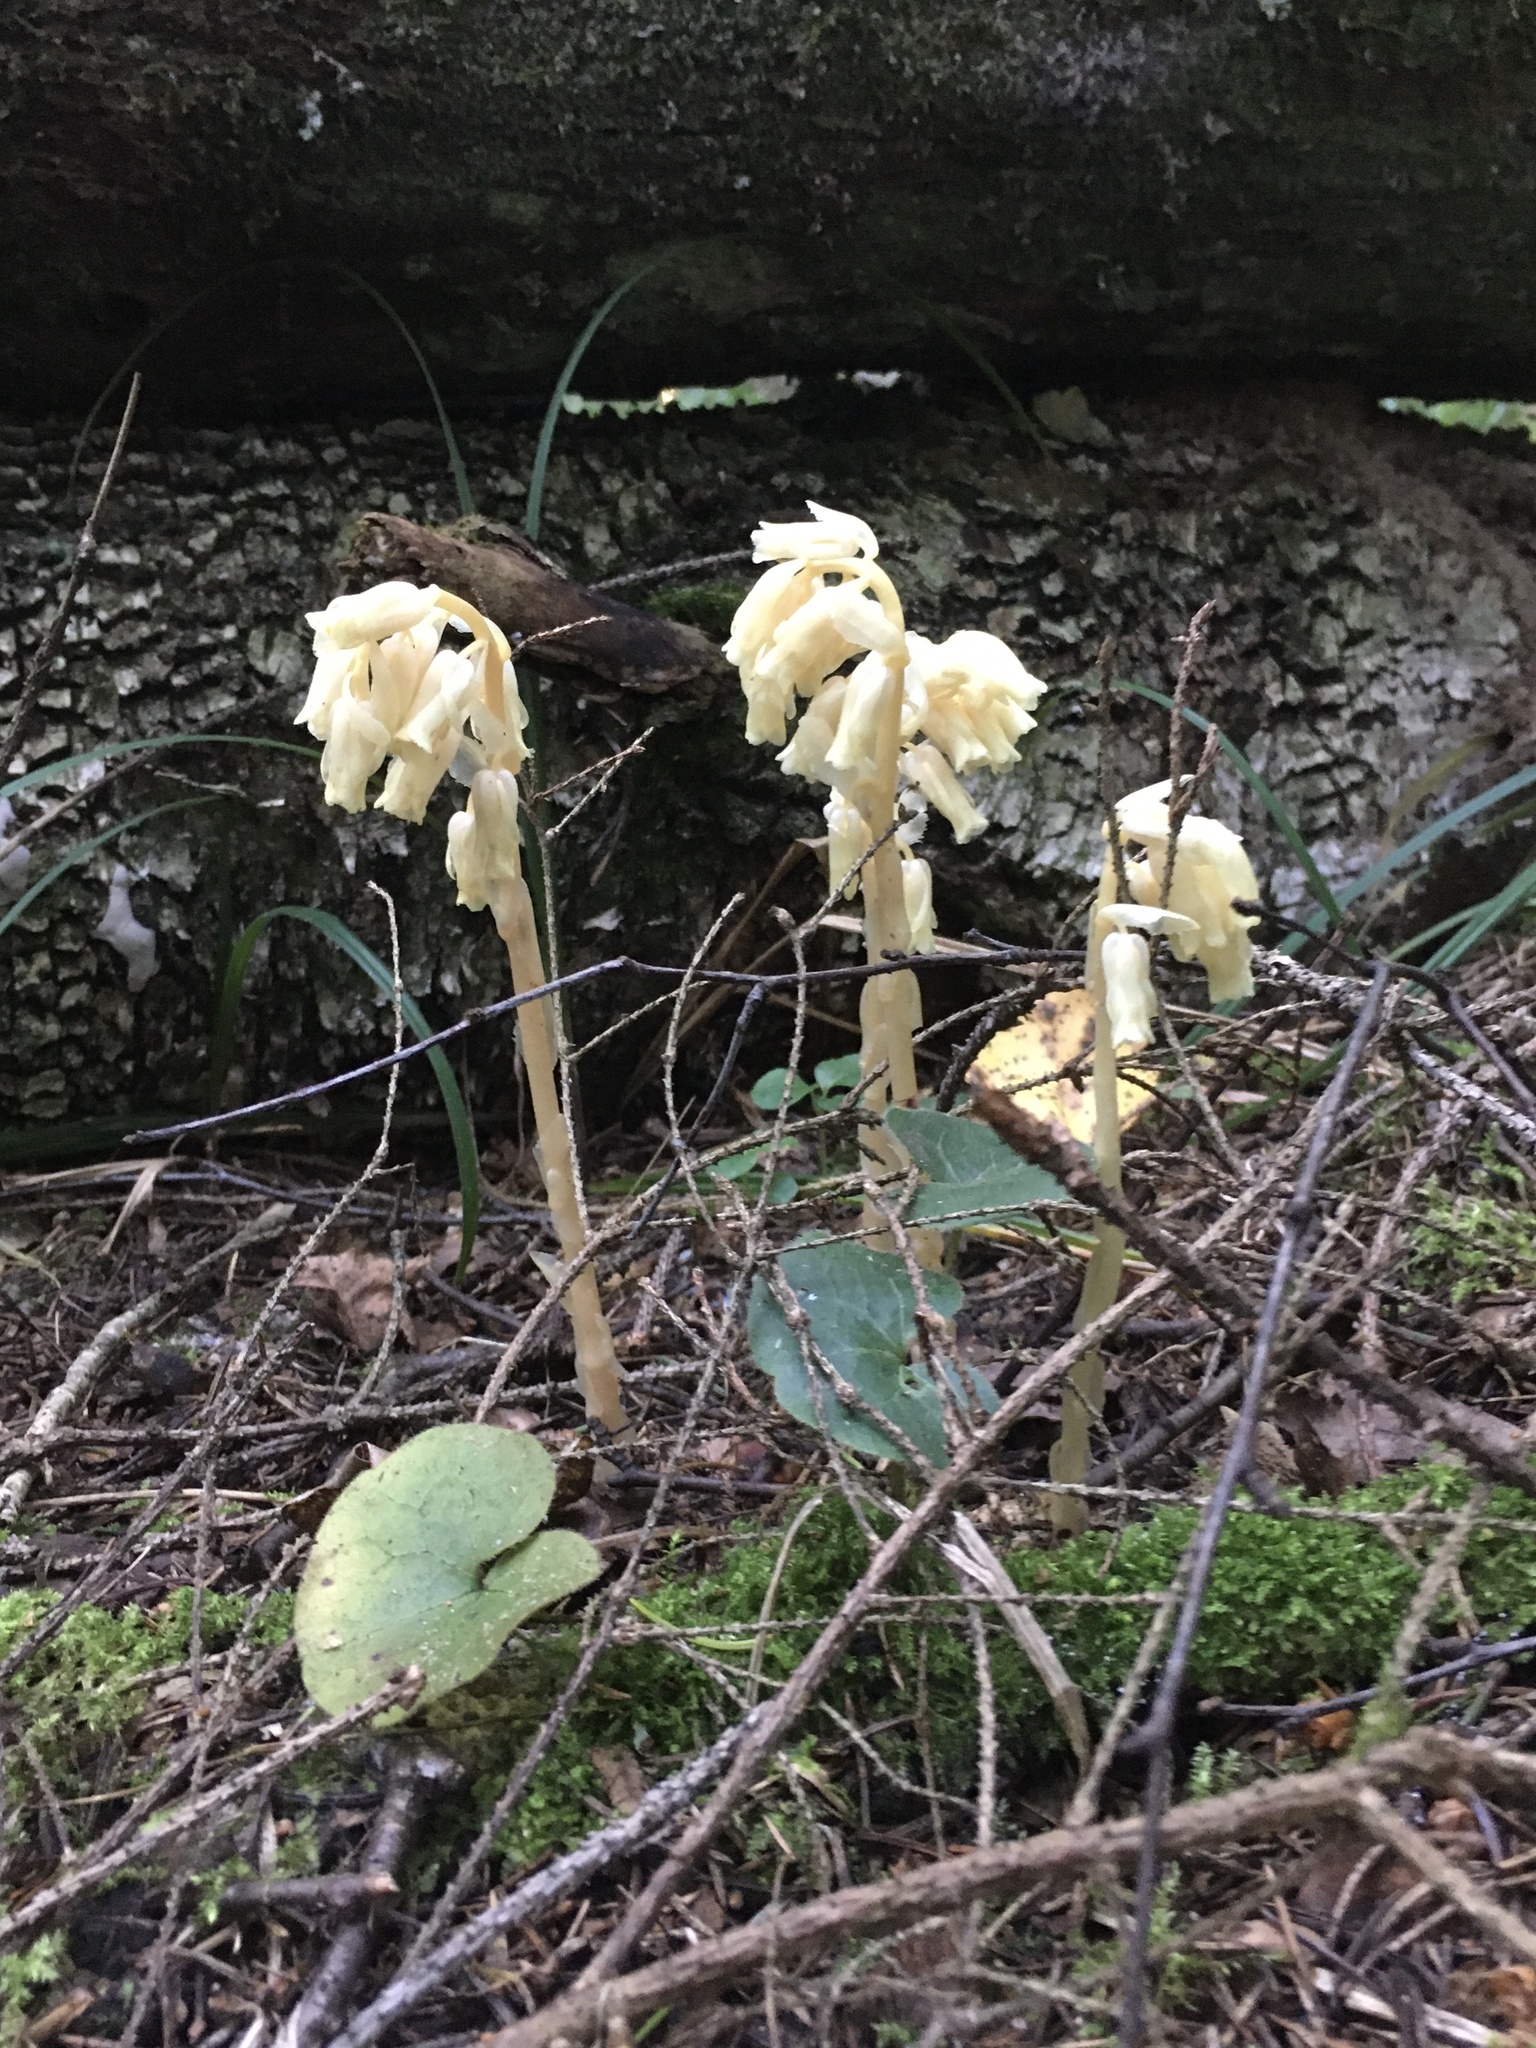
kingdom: Plantae
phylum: Tracheophyta
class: Magnoliopsida
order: Ericales
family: Ericaceae
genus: Hypopitys
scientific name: Hypopitys monotropa
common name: Yellow bird's-nest
